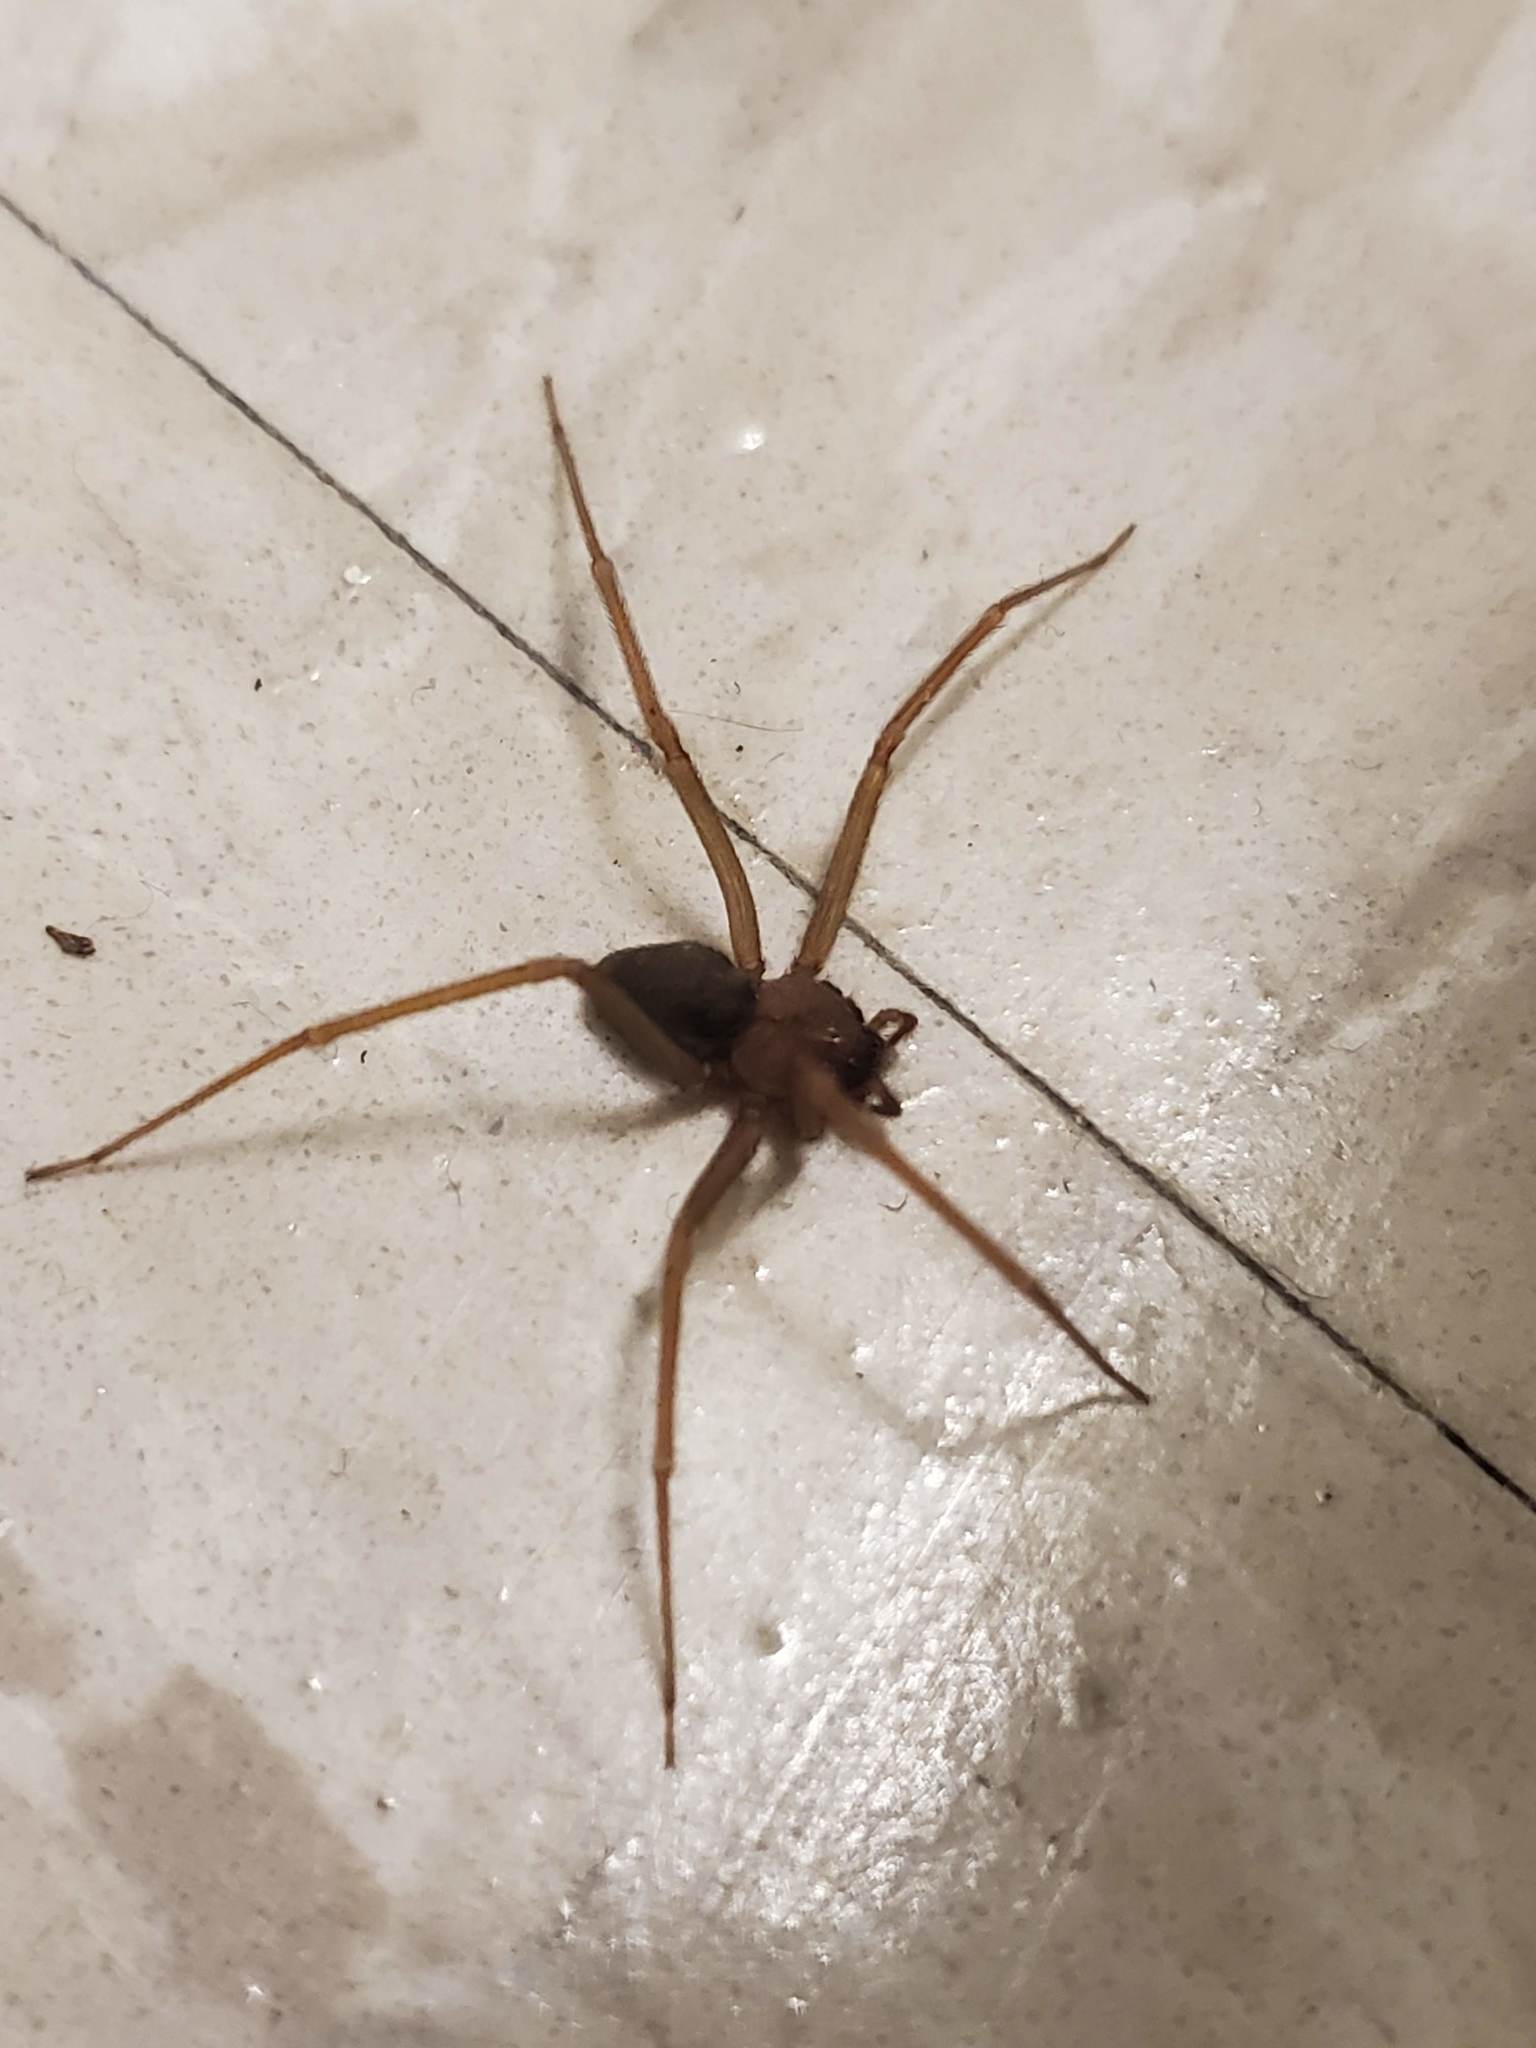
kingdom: Animalia
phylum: Arthropoda
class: Arachnida
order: Araneae
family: Sicariidae
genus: Loxosceles
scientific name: Loxosceles reclusa
